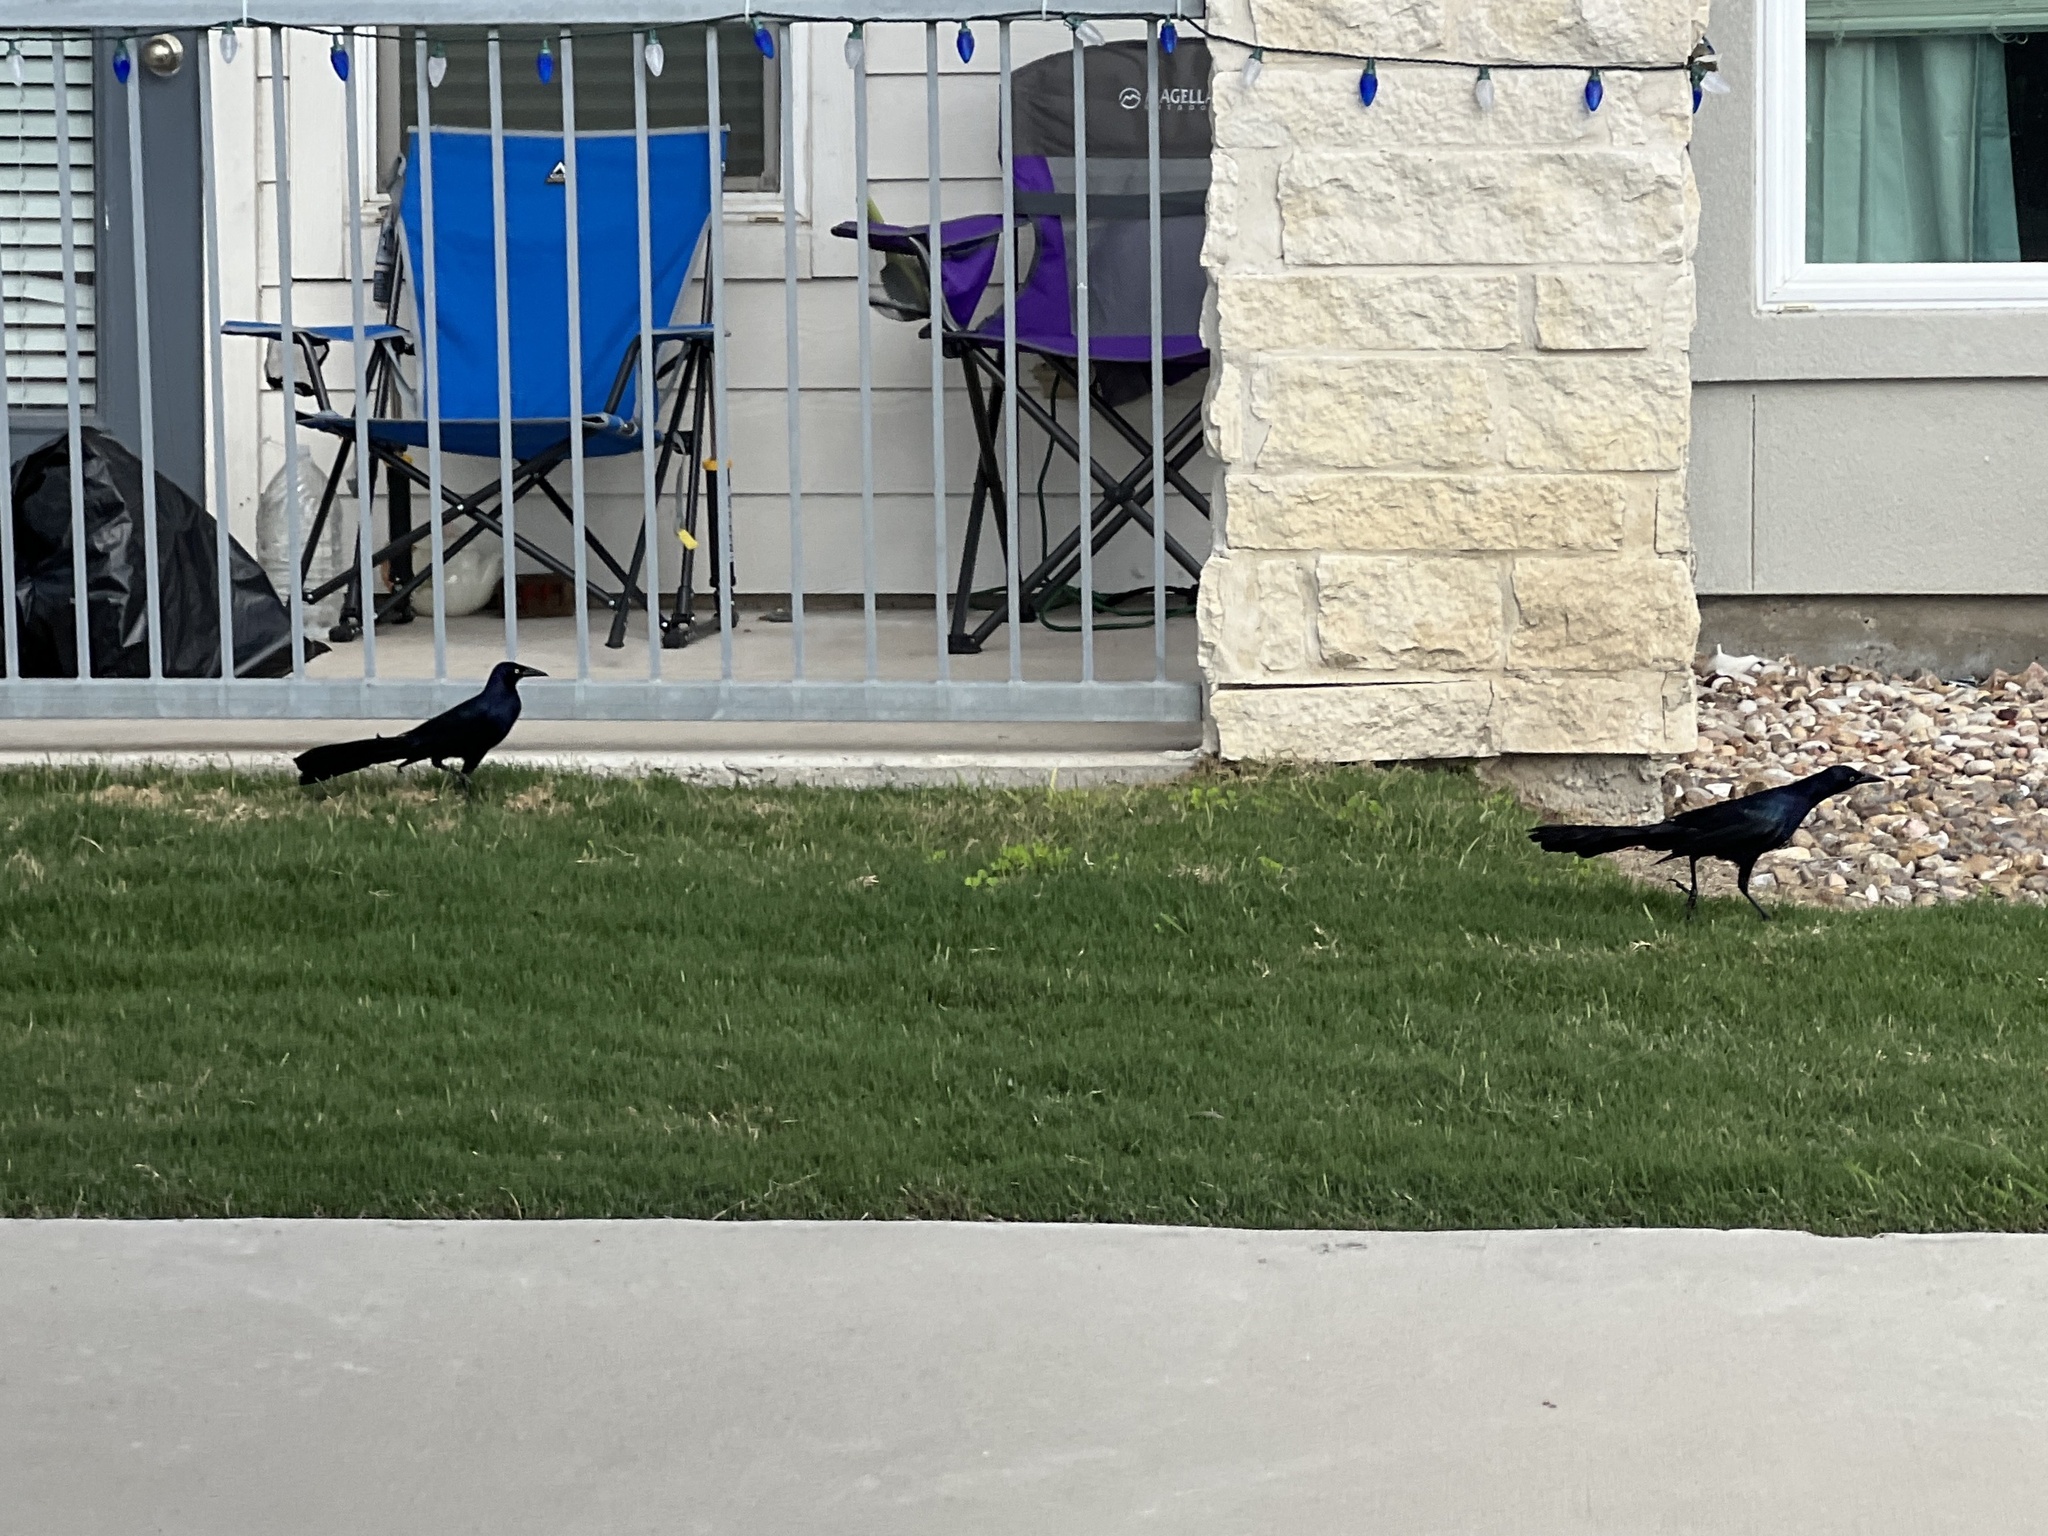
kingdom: Animalia
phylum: Chordata
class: Aves
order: Passeriformes
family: Icteridae
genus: Quiscalus
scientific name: Quiscalus mexicanus
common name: Great-tailed grackle
